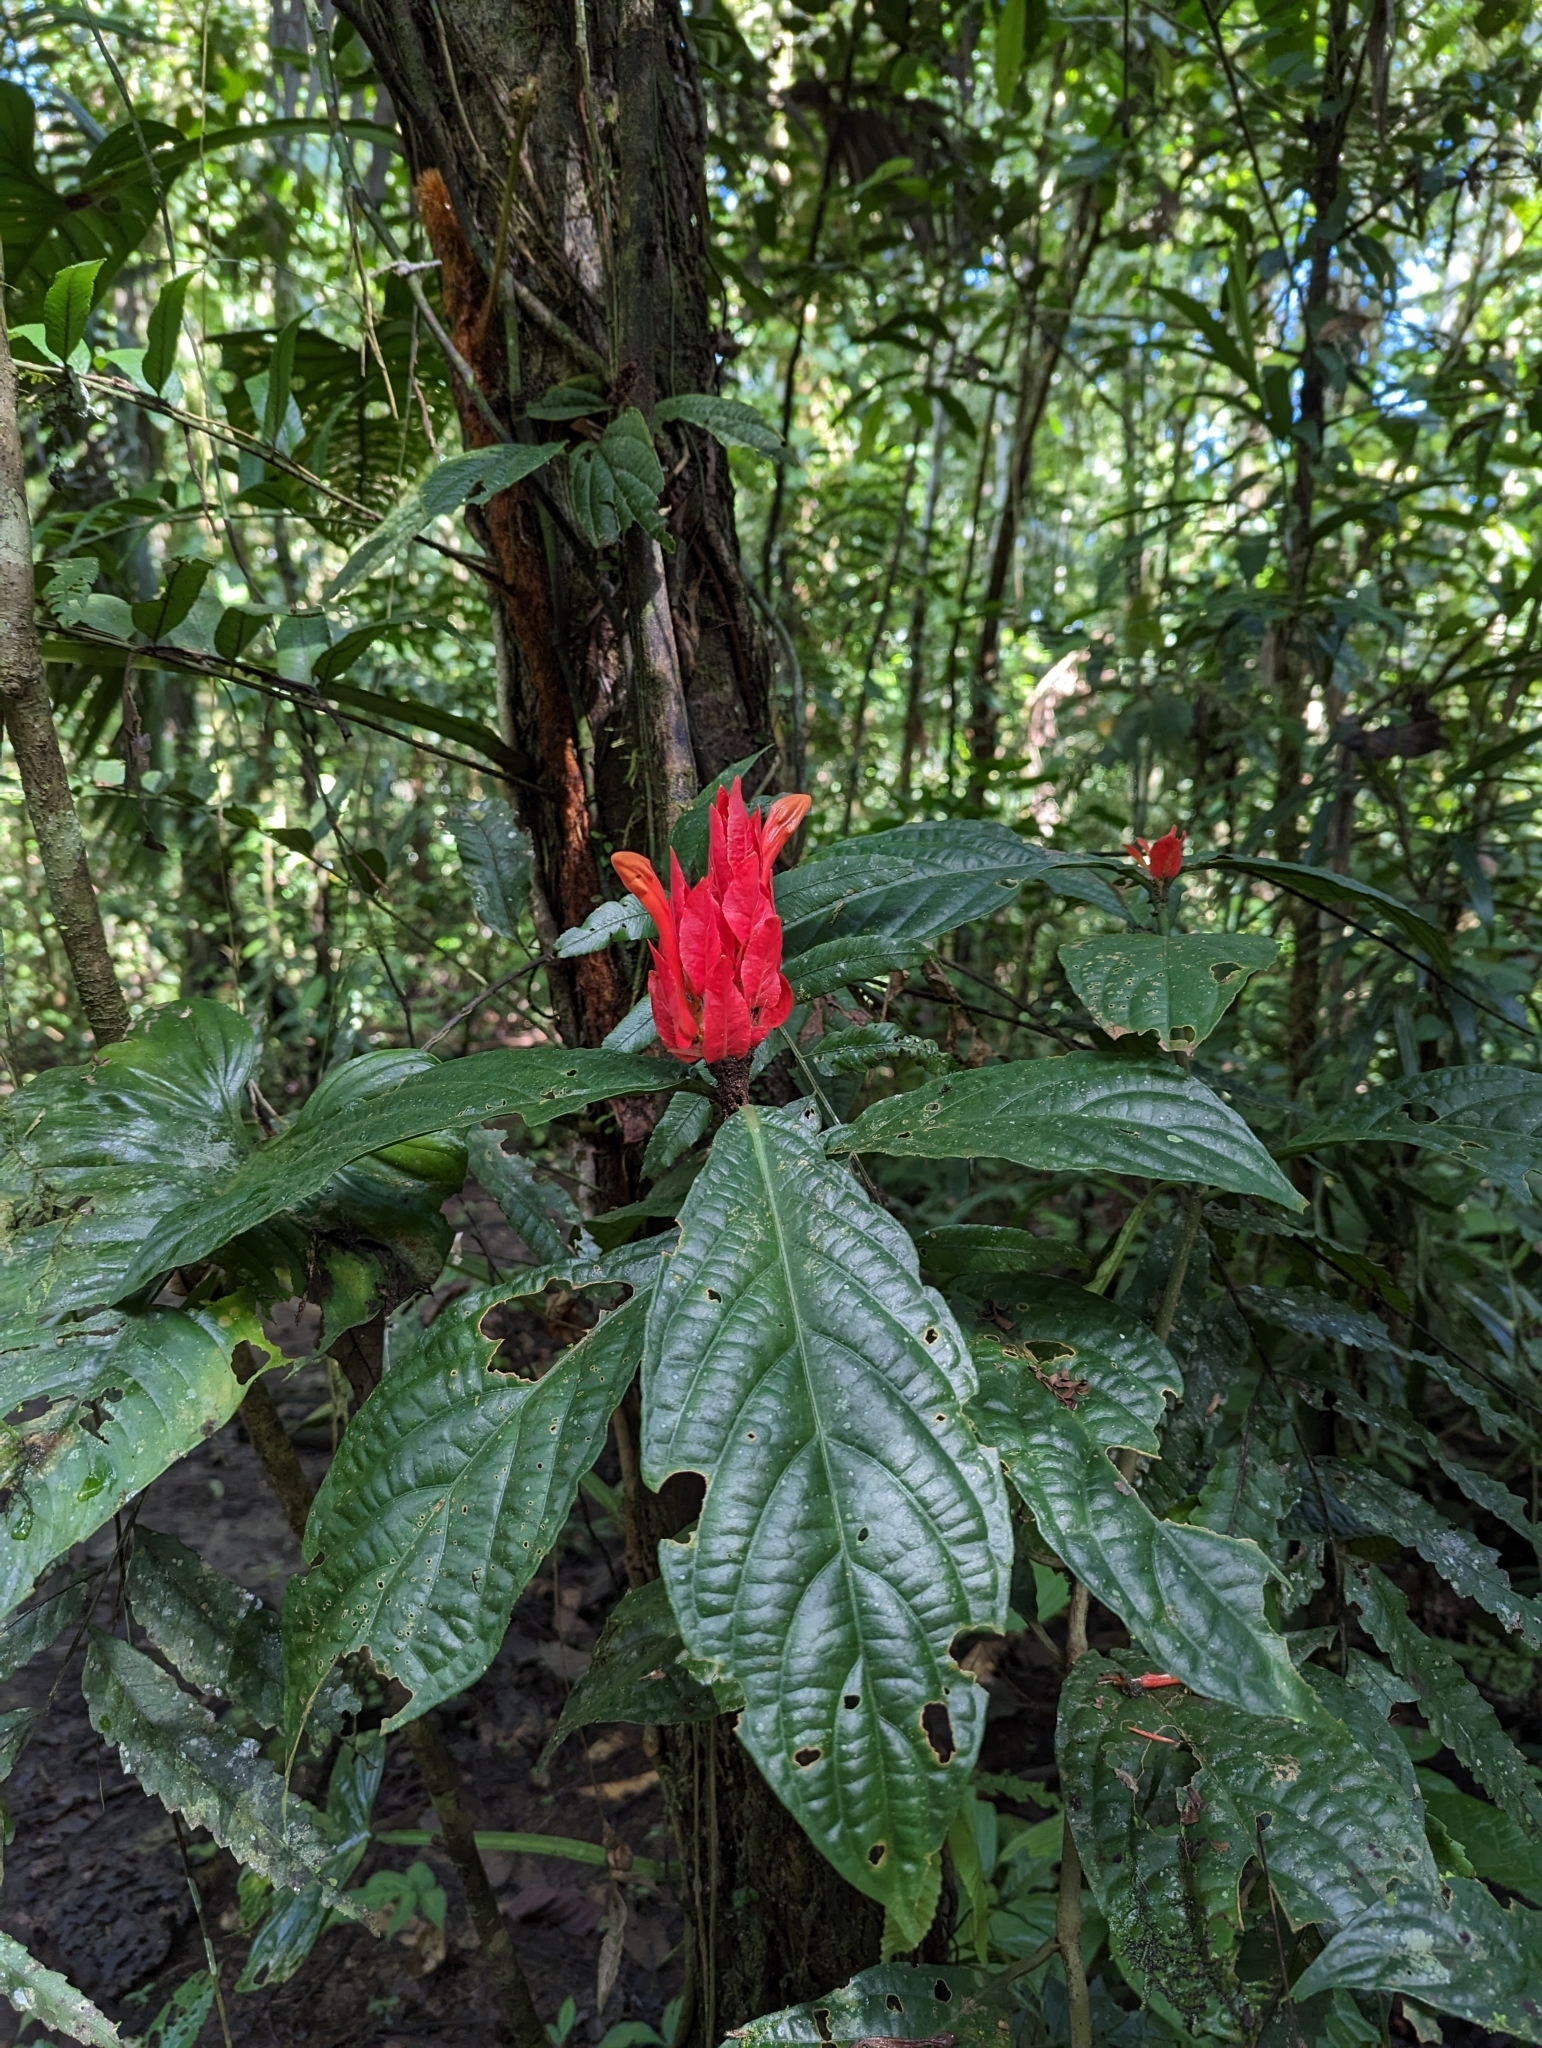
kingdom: Plantae
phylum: Tracheophyta
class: Magnoliopsida
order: Lamiales
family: Acanthaceae
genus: Ruellia
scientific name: Ruellia chartacea
